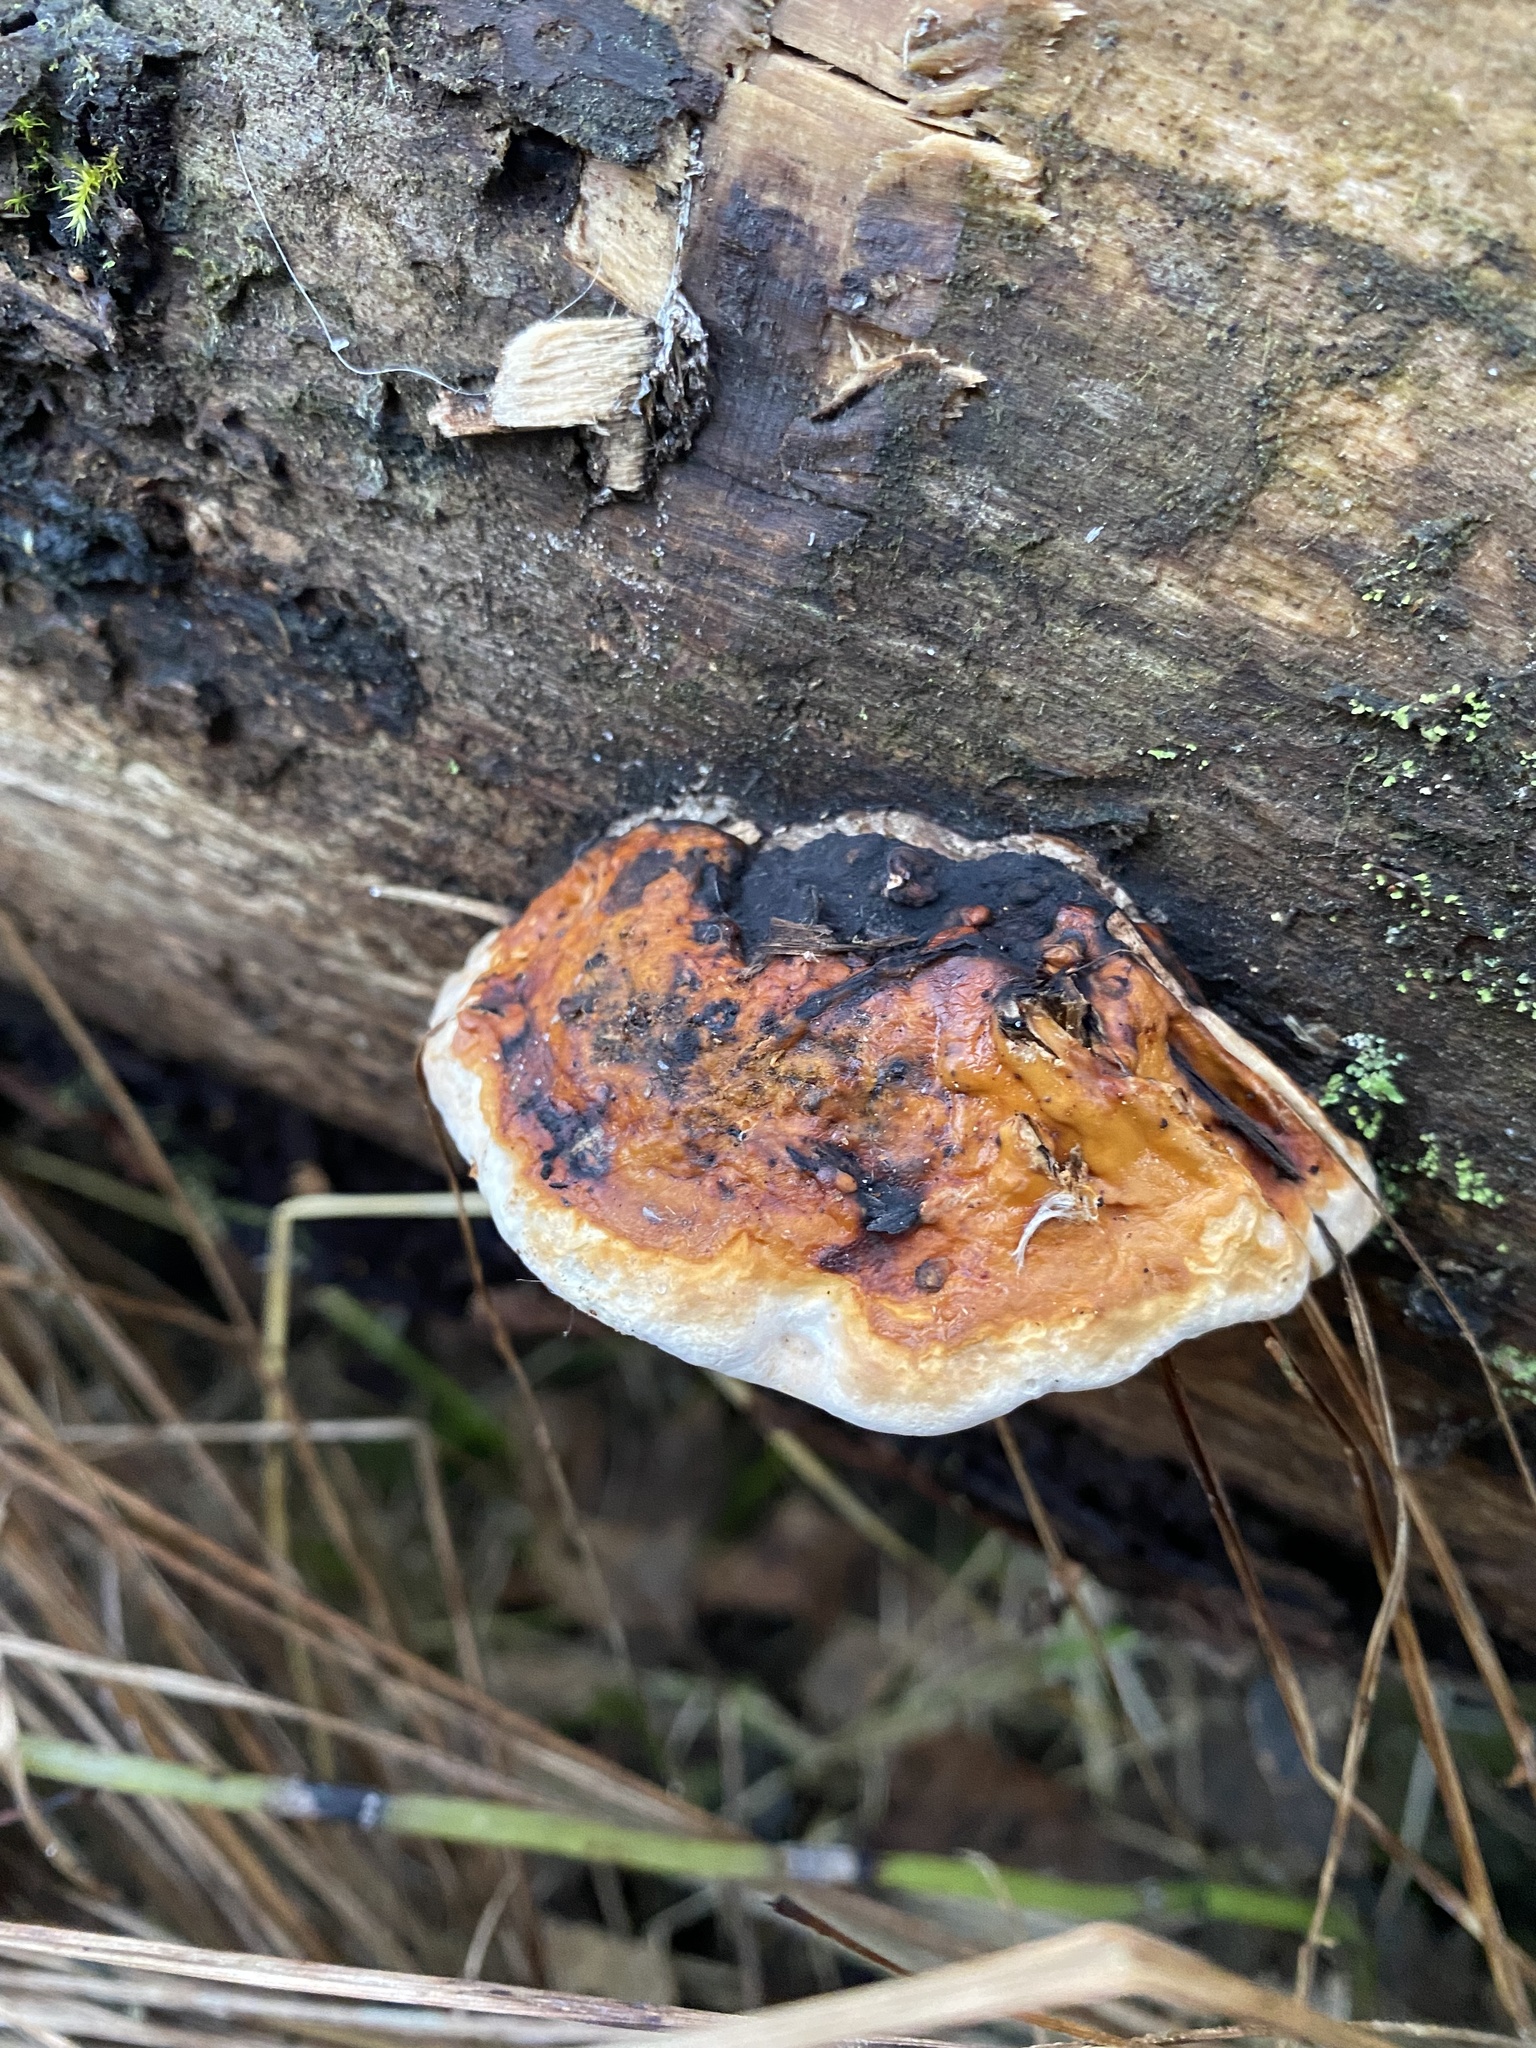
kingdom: Fungi
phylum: Basidiomycota
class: Agaricomycetes
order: Polyporales
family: Fomitopsidaceae
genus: Fomitopsis
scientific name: Fomitopsis pinicola
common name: Red-belted bracket
